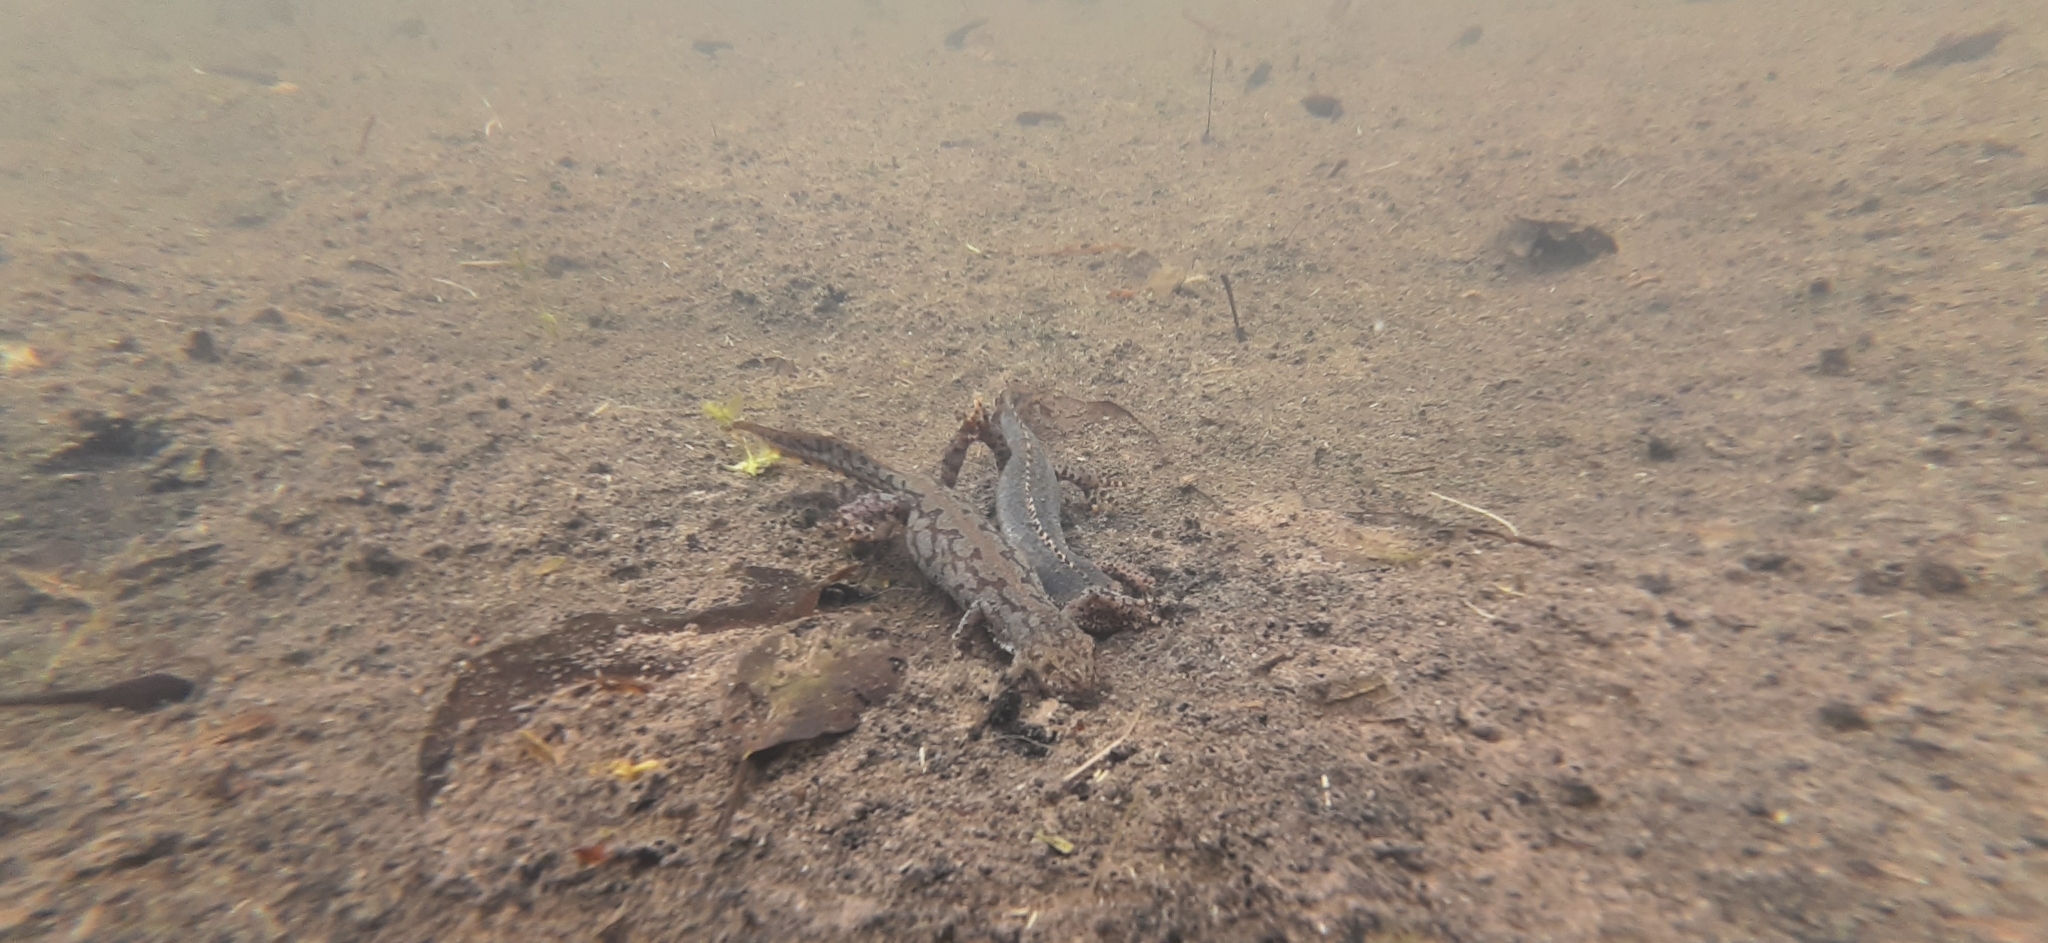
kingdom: Animalia
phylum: Chordata
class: Amphibia
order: Caudata
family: Salamandridae
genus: Ichthyosaura
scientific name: Ichthyosaura alpestris
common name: Alpine newt
